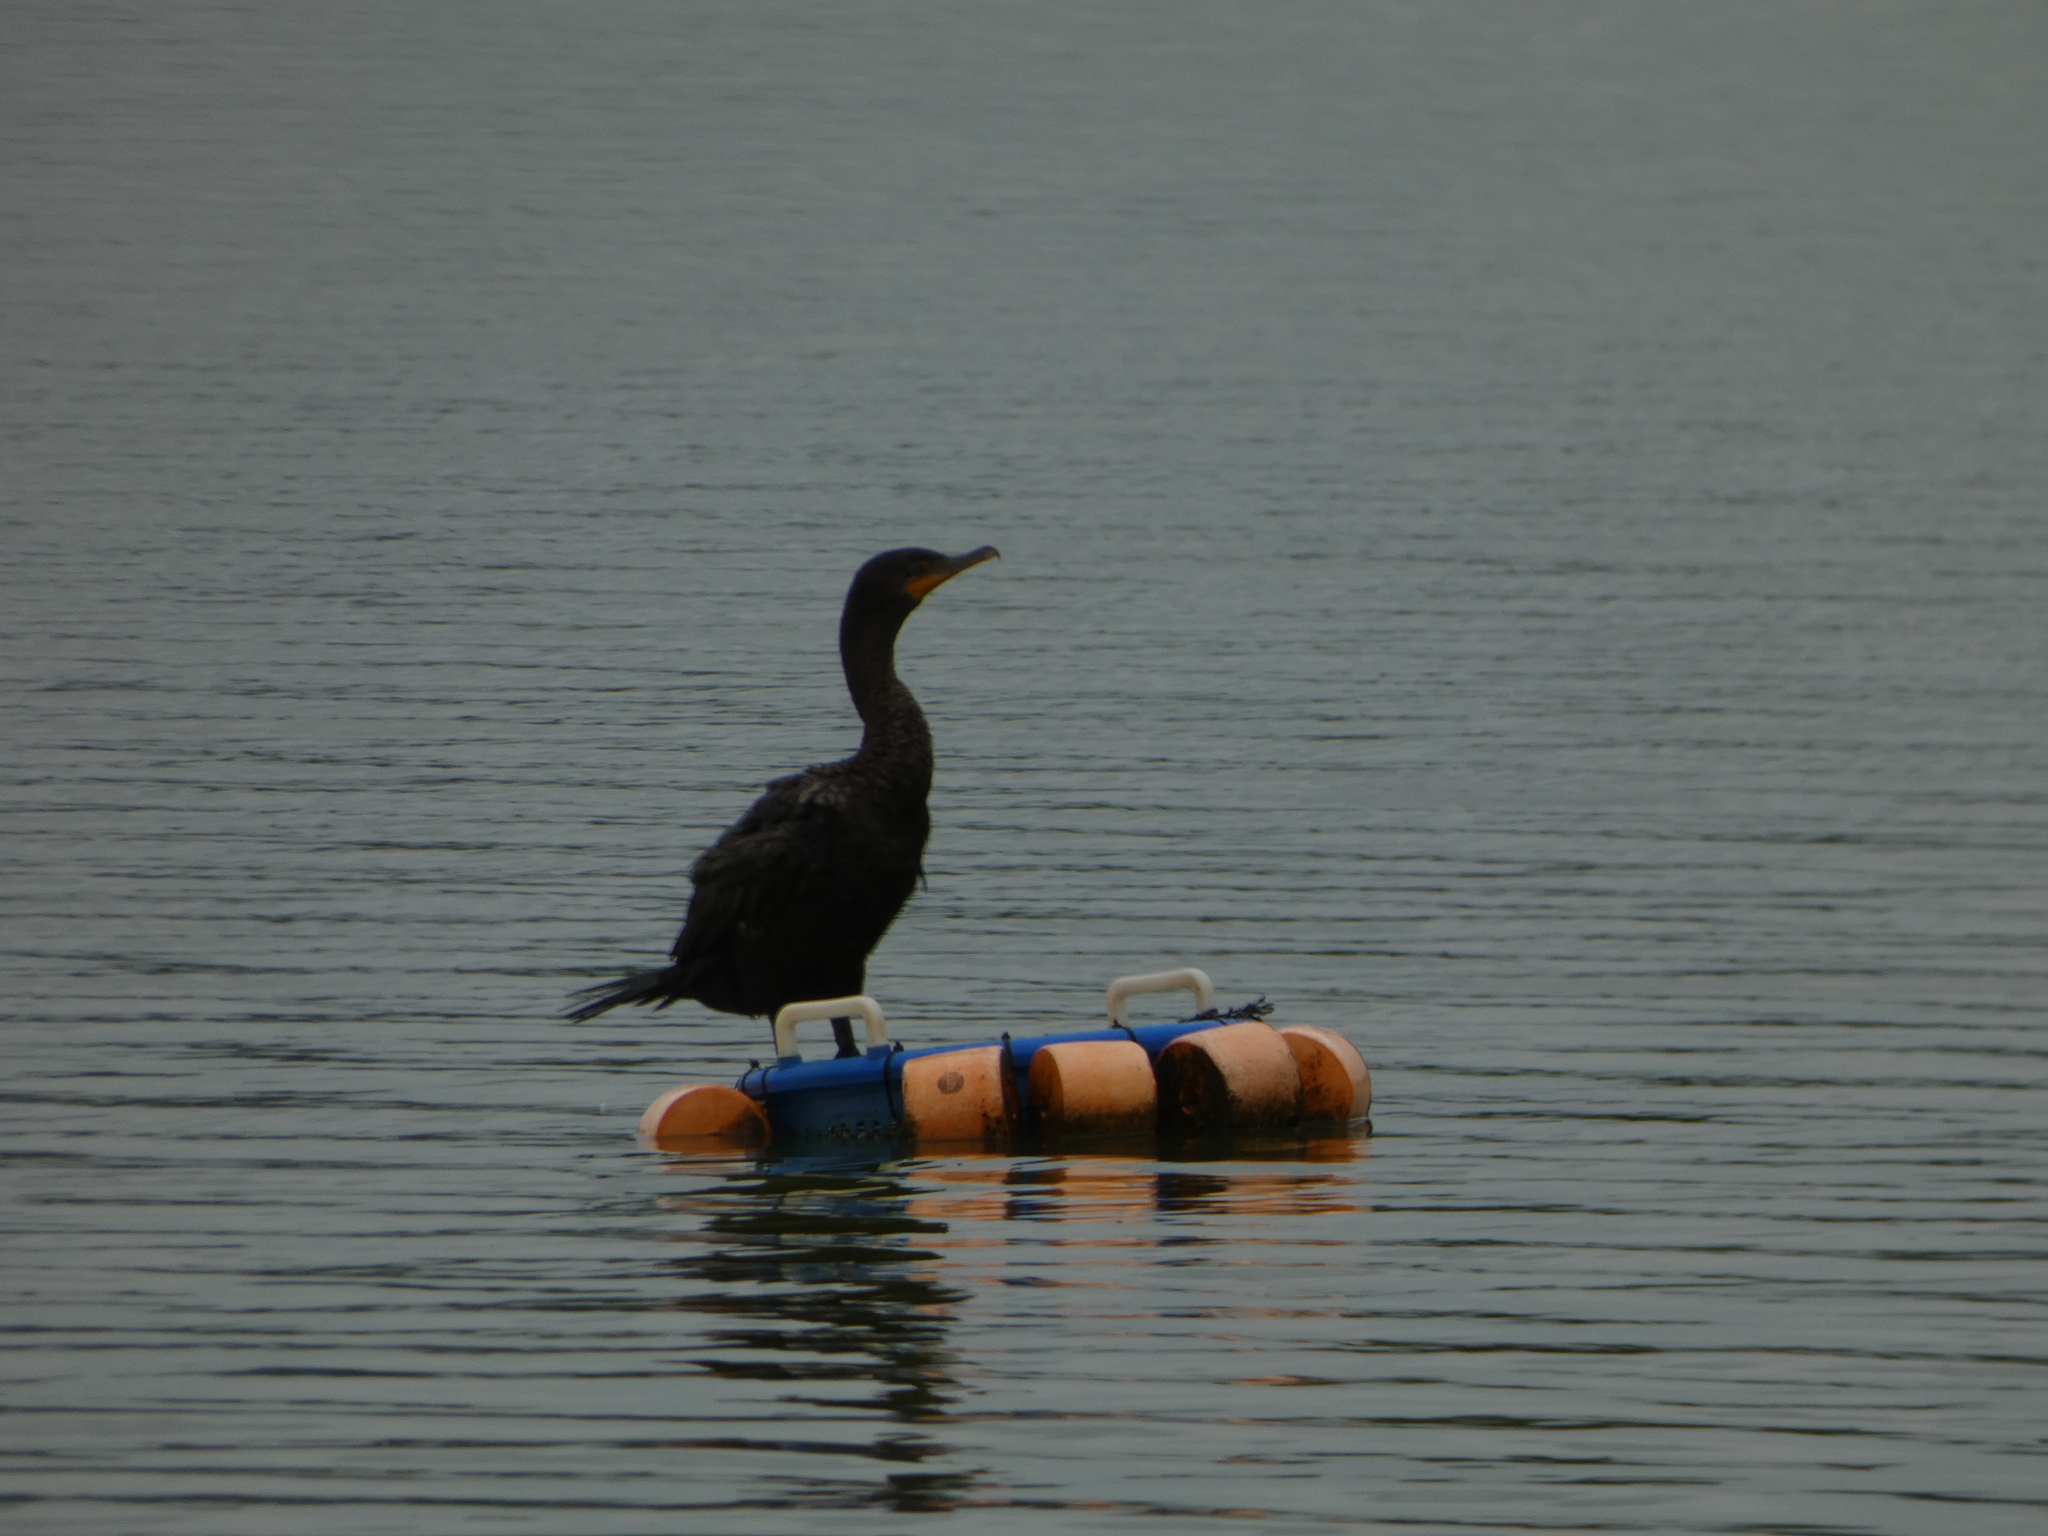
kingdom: Animalia
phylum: Chordata
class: Aves
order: Suliformes
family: Phalacrocoracidae
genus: Phalacrocorax
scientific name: Phalacrocorax auritus
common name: Double-crested cormorant
